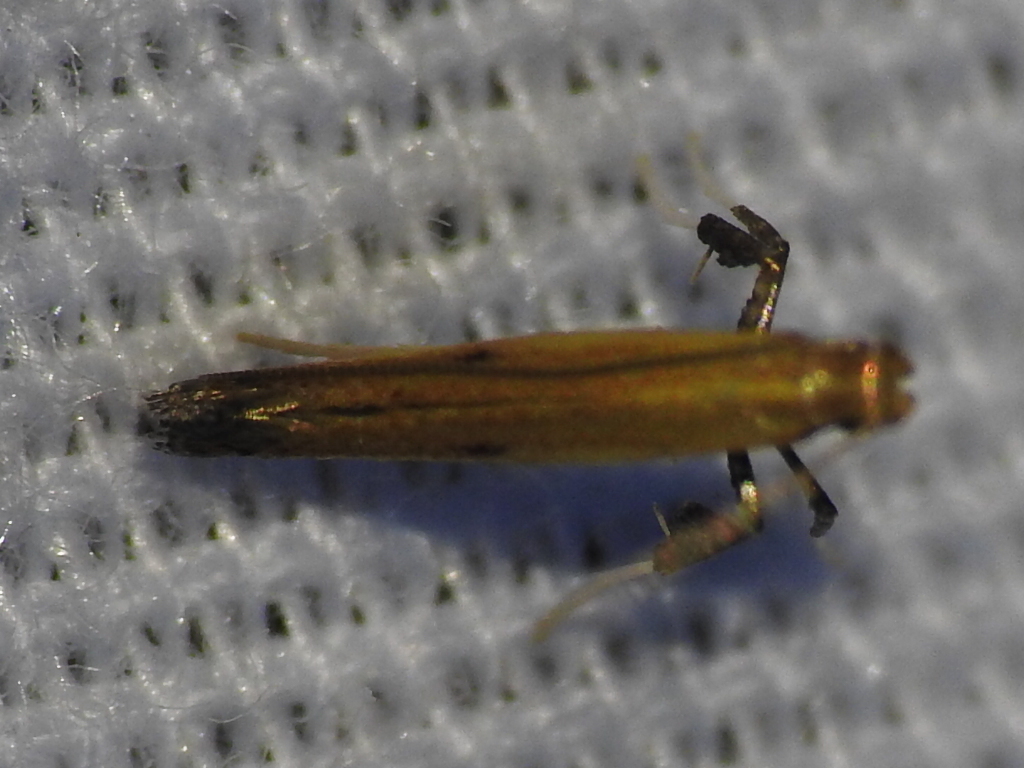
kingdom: Animalia
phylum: Arthropoda
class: Insecta
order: Lepidoptera
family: Gracillariidae
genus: Caloptilia
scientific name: Caloptilia violacella
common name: Tick-trefoil caloptilia moth
